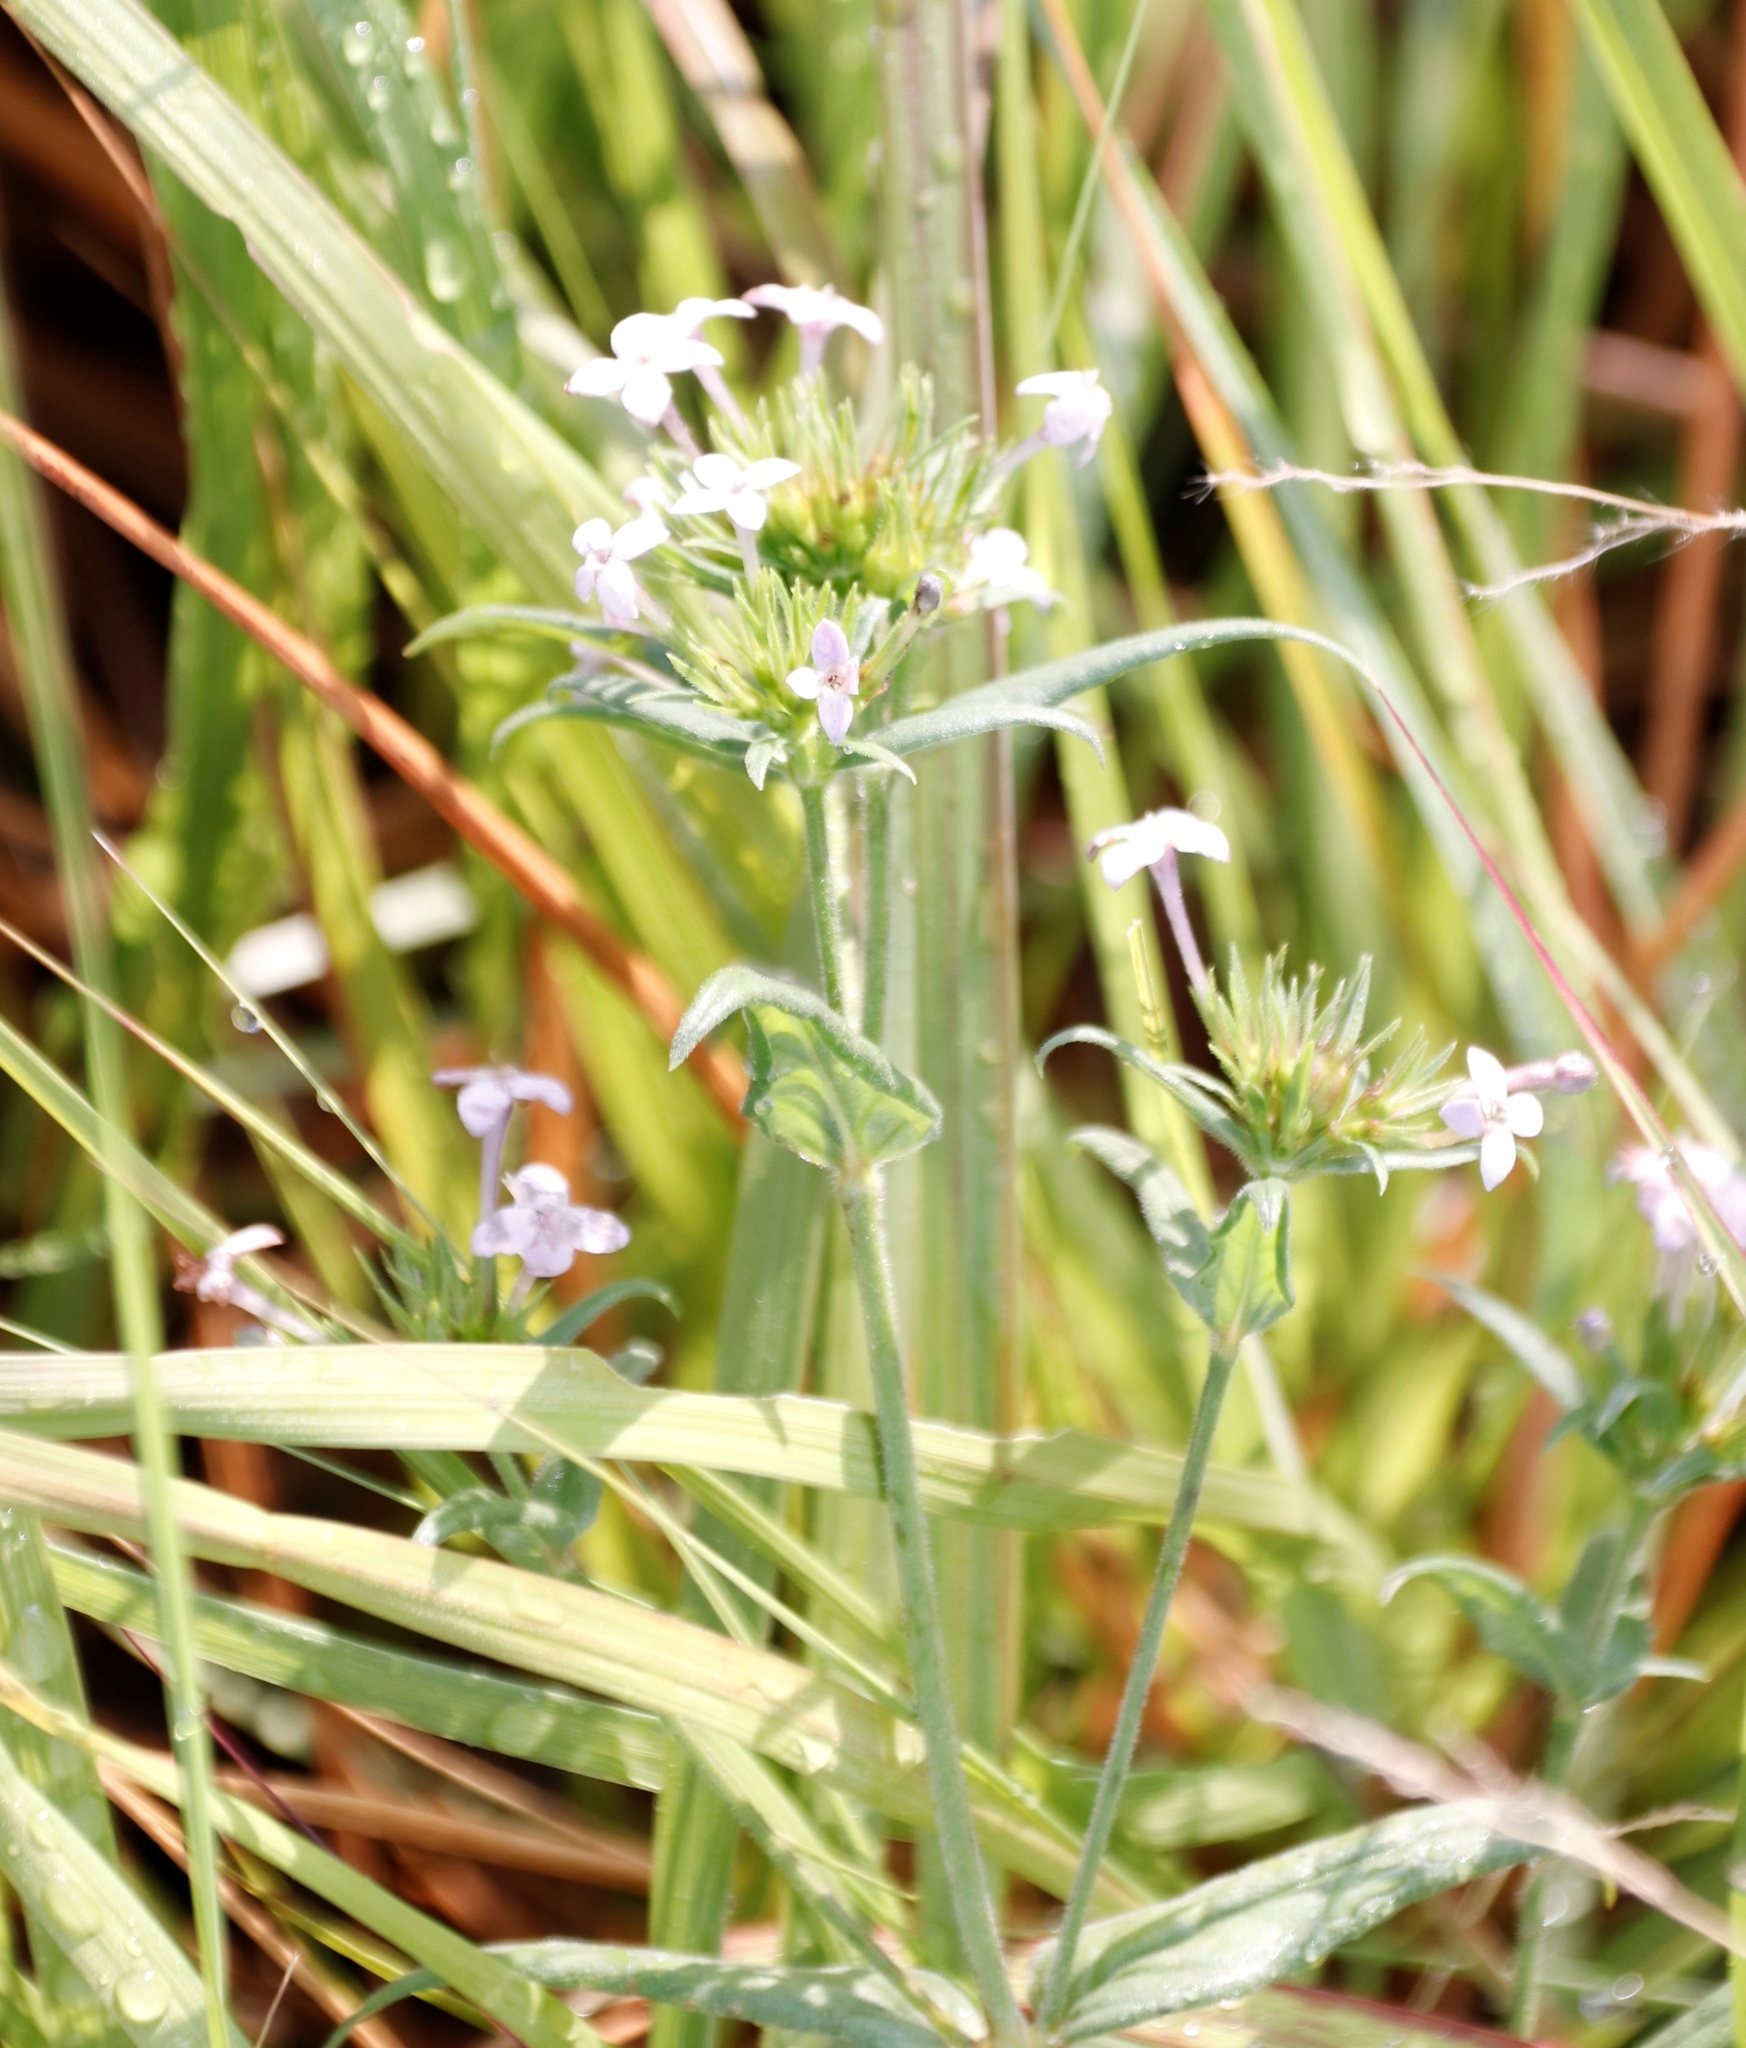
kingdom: Plantae
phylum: Tracheophyta
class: Magnoliopsida
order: Gentianales
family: Rubiaceae
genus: Conostomium
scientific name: Conostomium natalense
